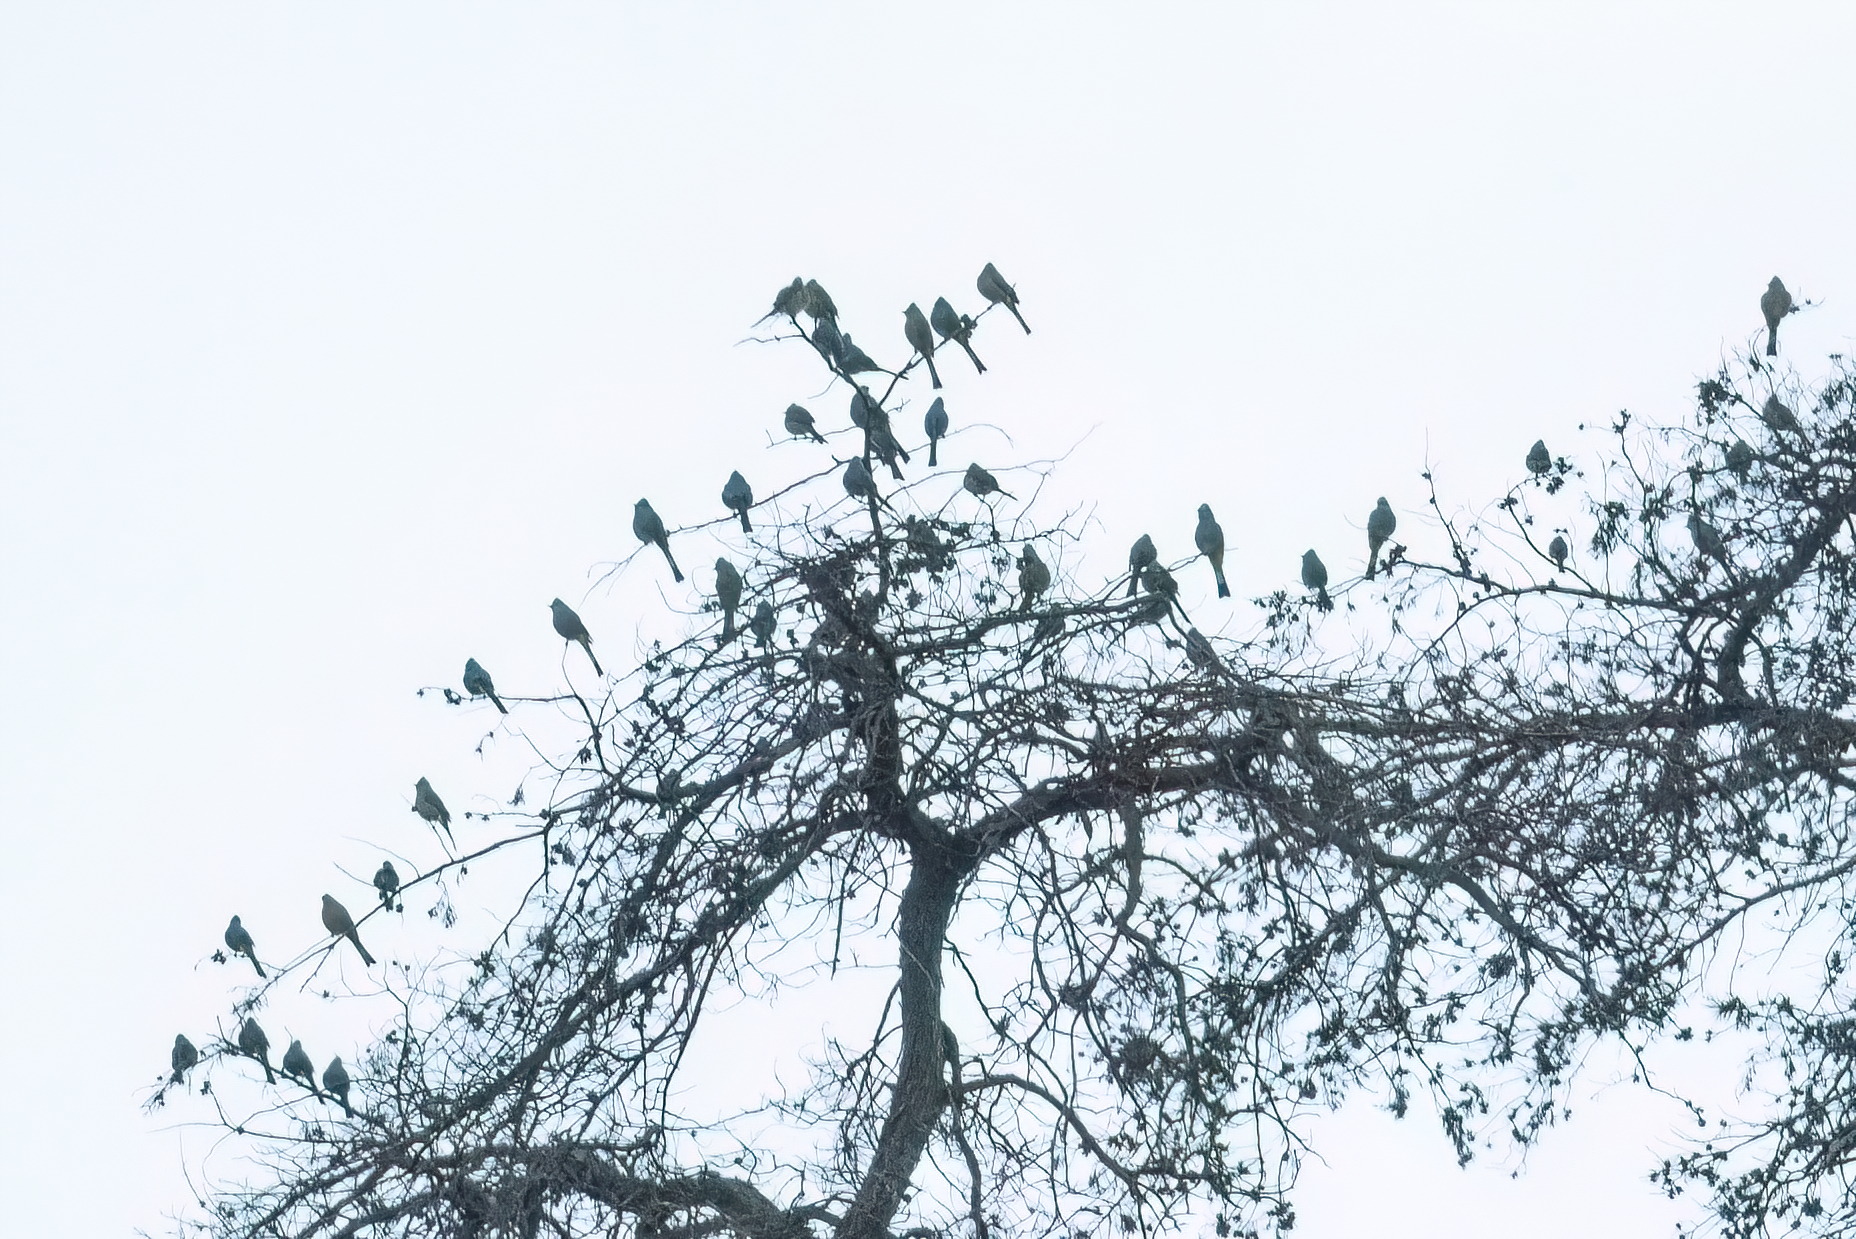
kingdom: Animalia
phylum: Chordata
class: Aves
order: Passeriformes
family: Ptilogonatidae
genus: Ptilogonys
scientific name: Ptilogonys cinereus
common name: Gray silky-flycatcher
